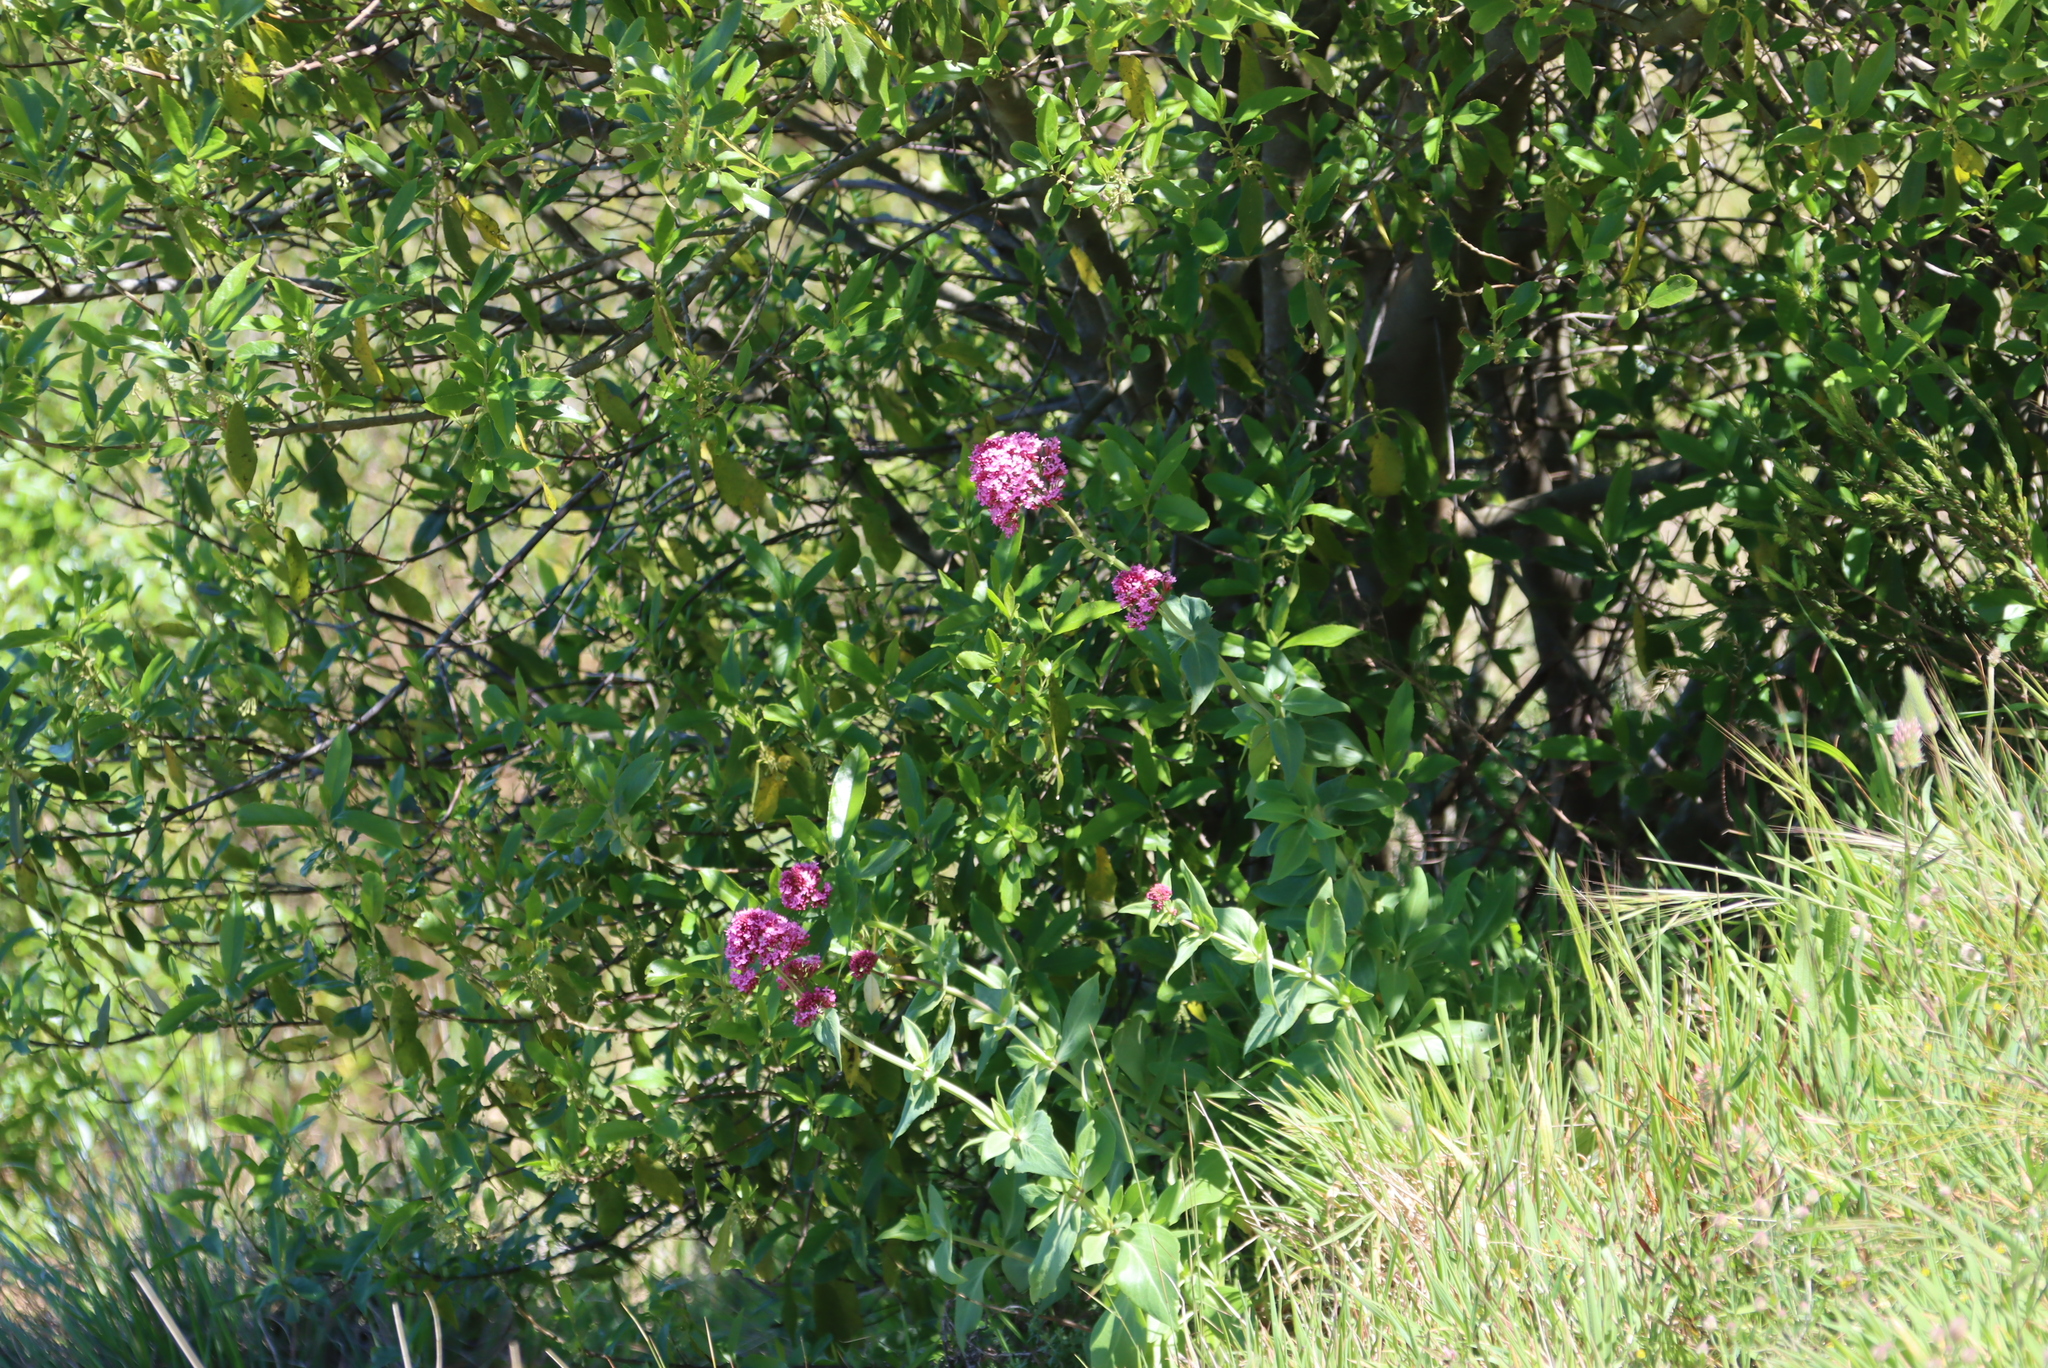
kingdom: Plantae
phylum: Tracheophyta
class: Magnoliopsida
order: Dipsacales
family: Caprifoliaceae
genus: Centranthus
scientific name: Centranthus ruber
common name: Red valerian
